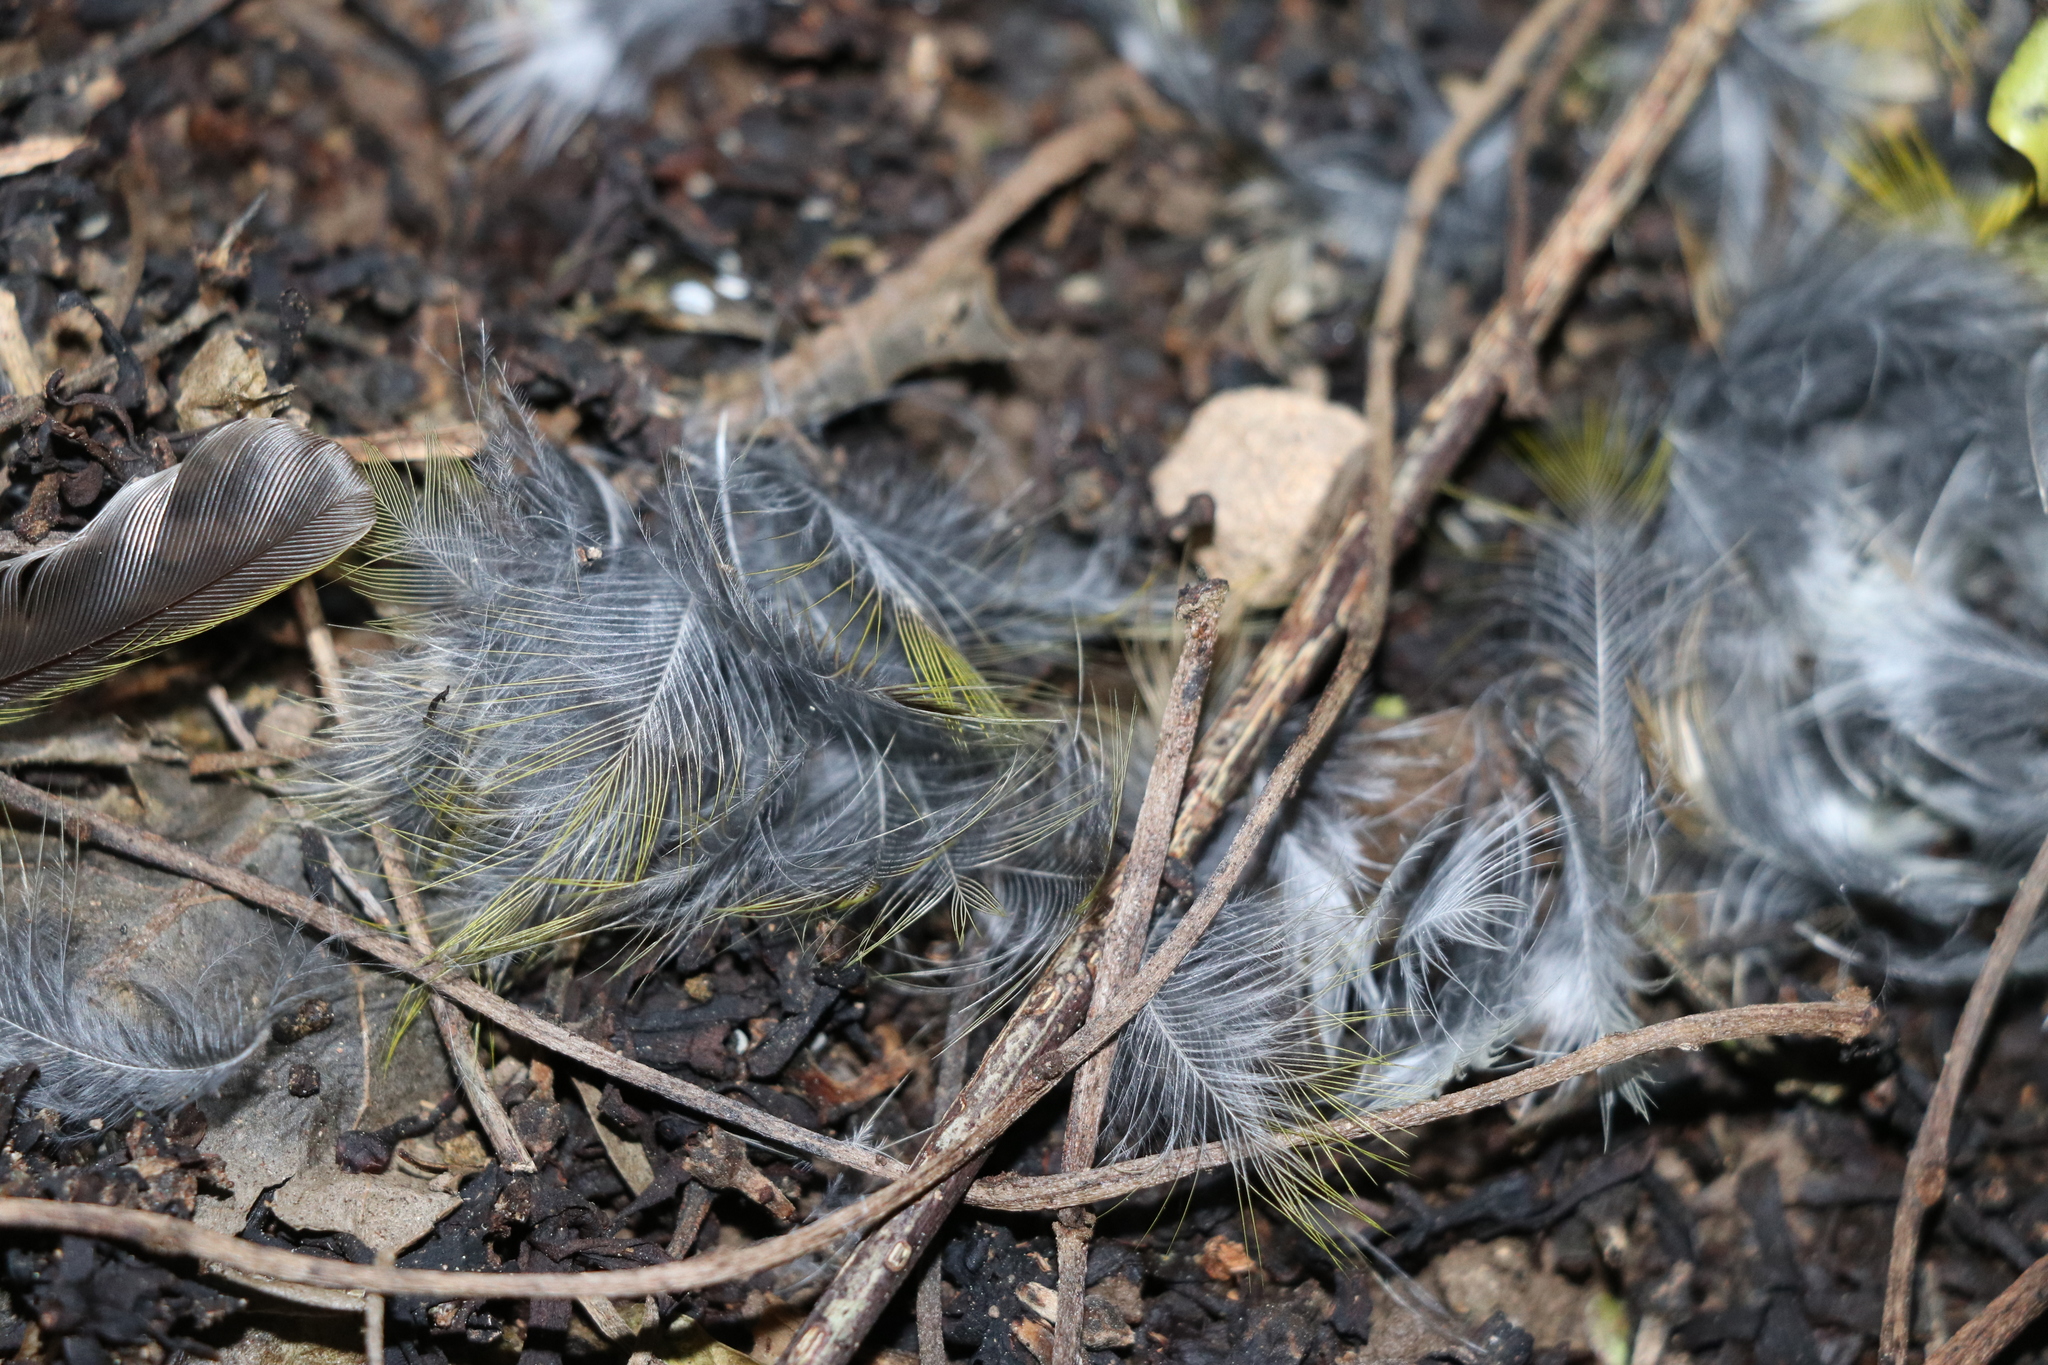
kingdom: Animalia
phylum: Chordata
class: Aves
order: Passeriformes
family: Zosteropidae
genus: Zosterops
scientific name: Zosterops lateralis
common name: Silvereye
